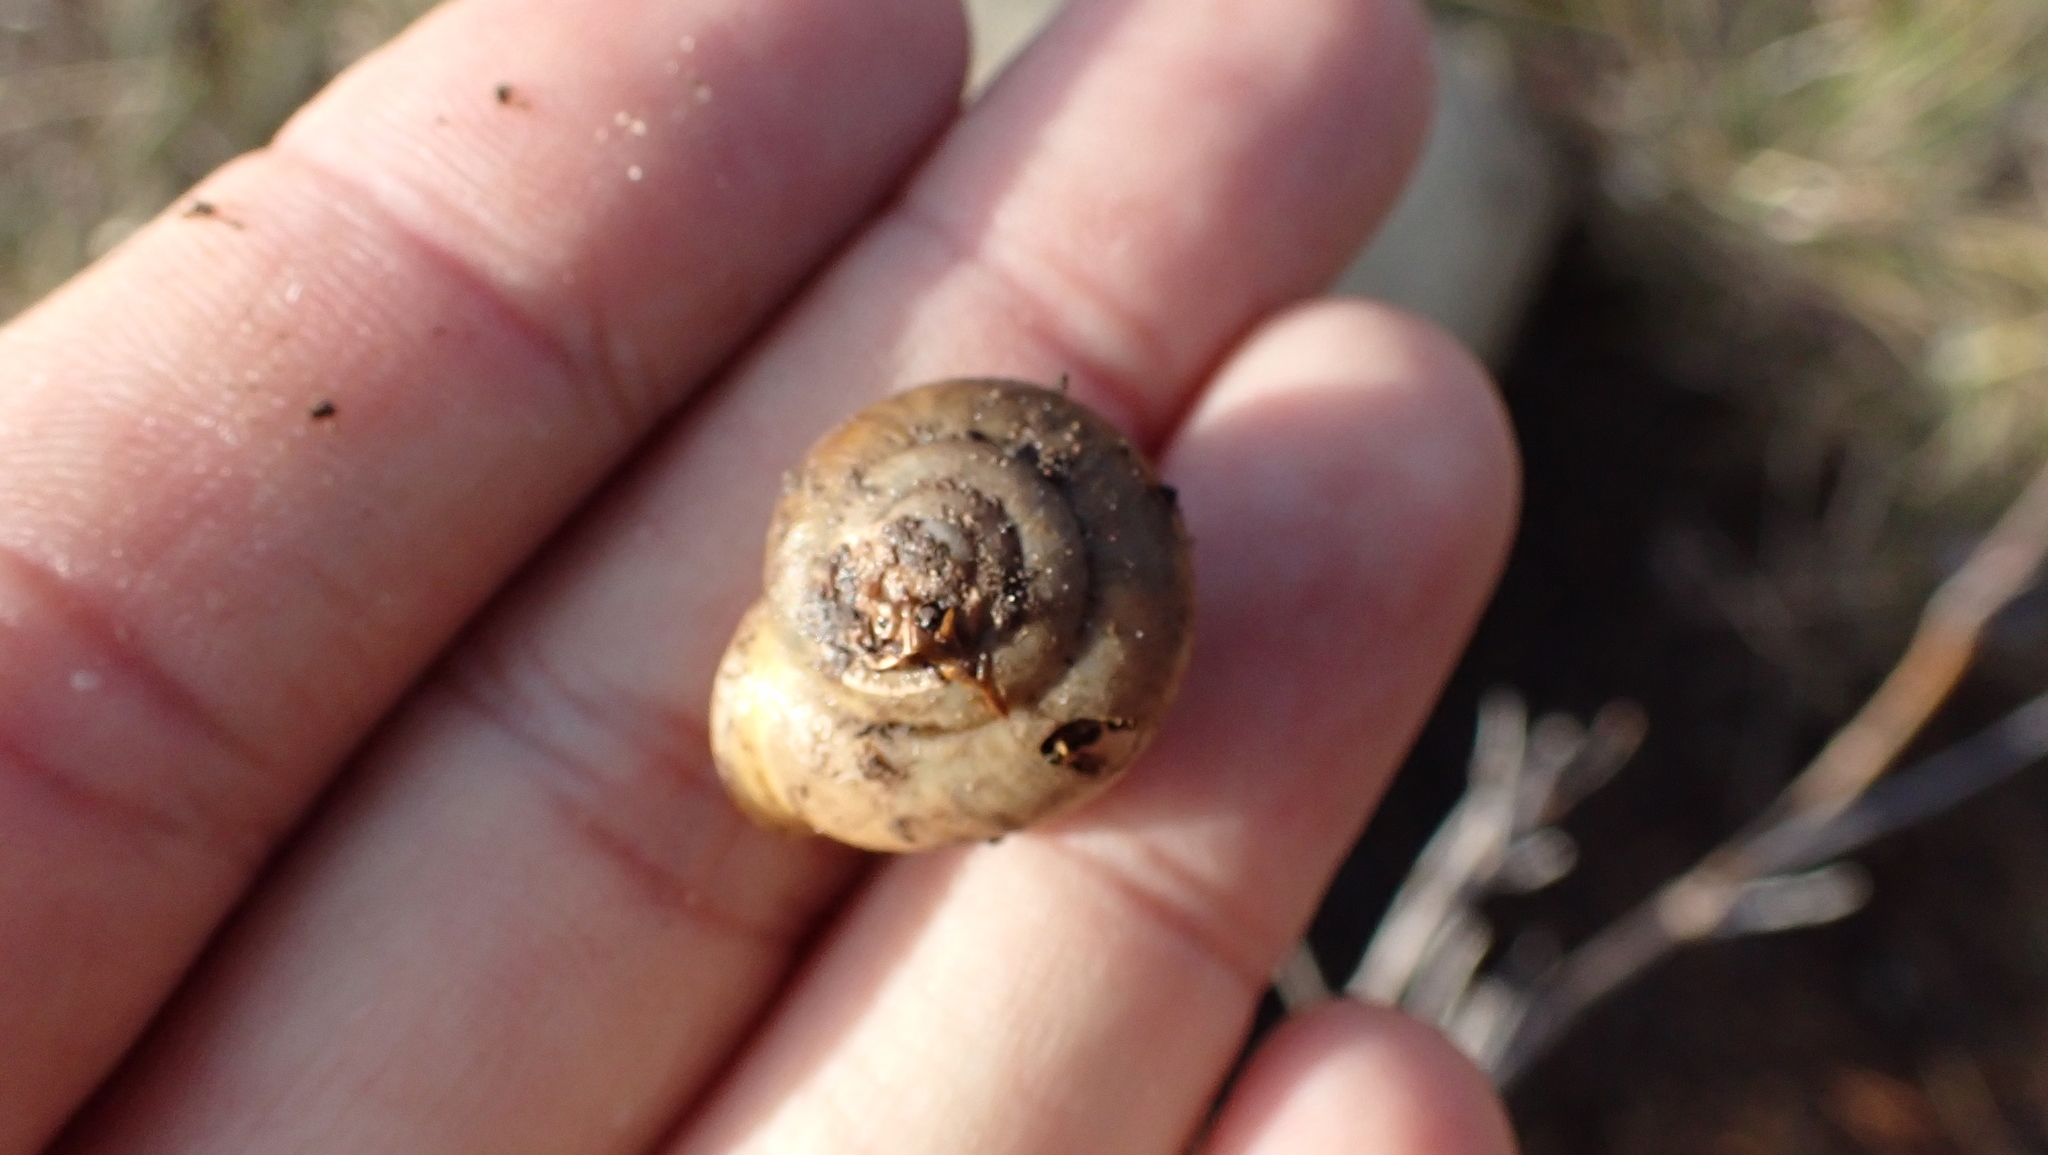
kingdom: Animalia
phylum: Mollusca
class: Gastropoda
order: Stylommatophora
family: Polygyridae
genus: Mesodon
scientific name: Mesodon thyroidus
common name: White-lip globe
